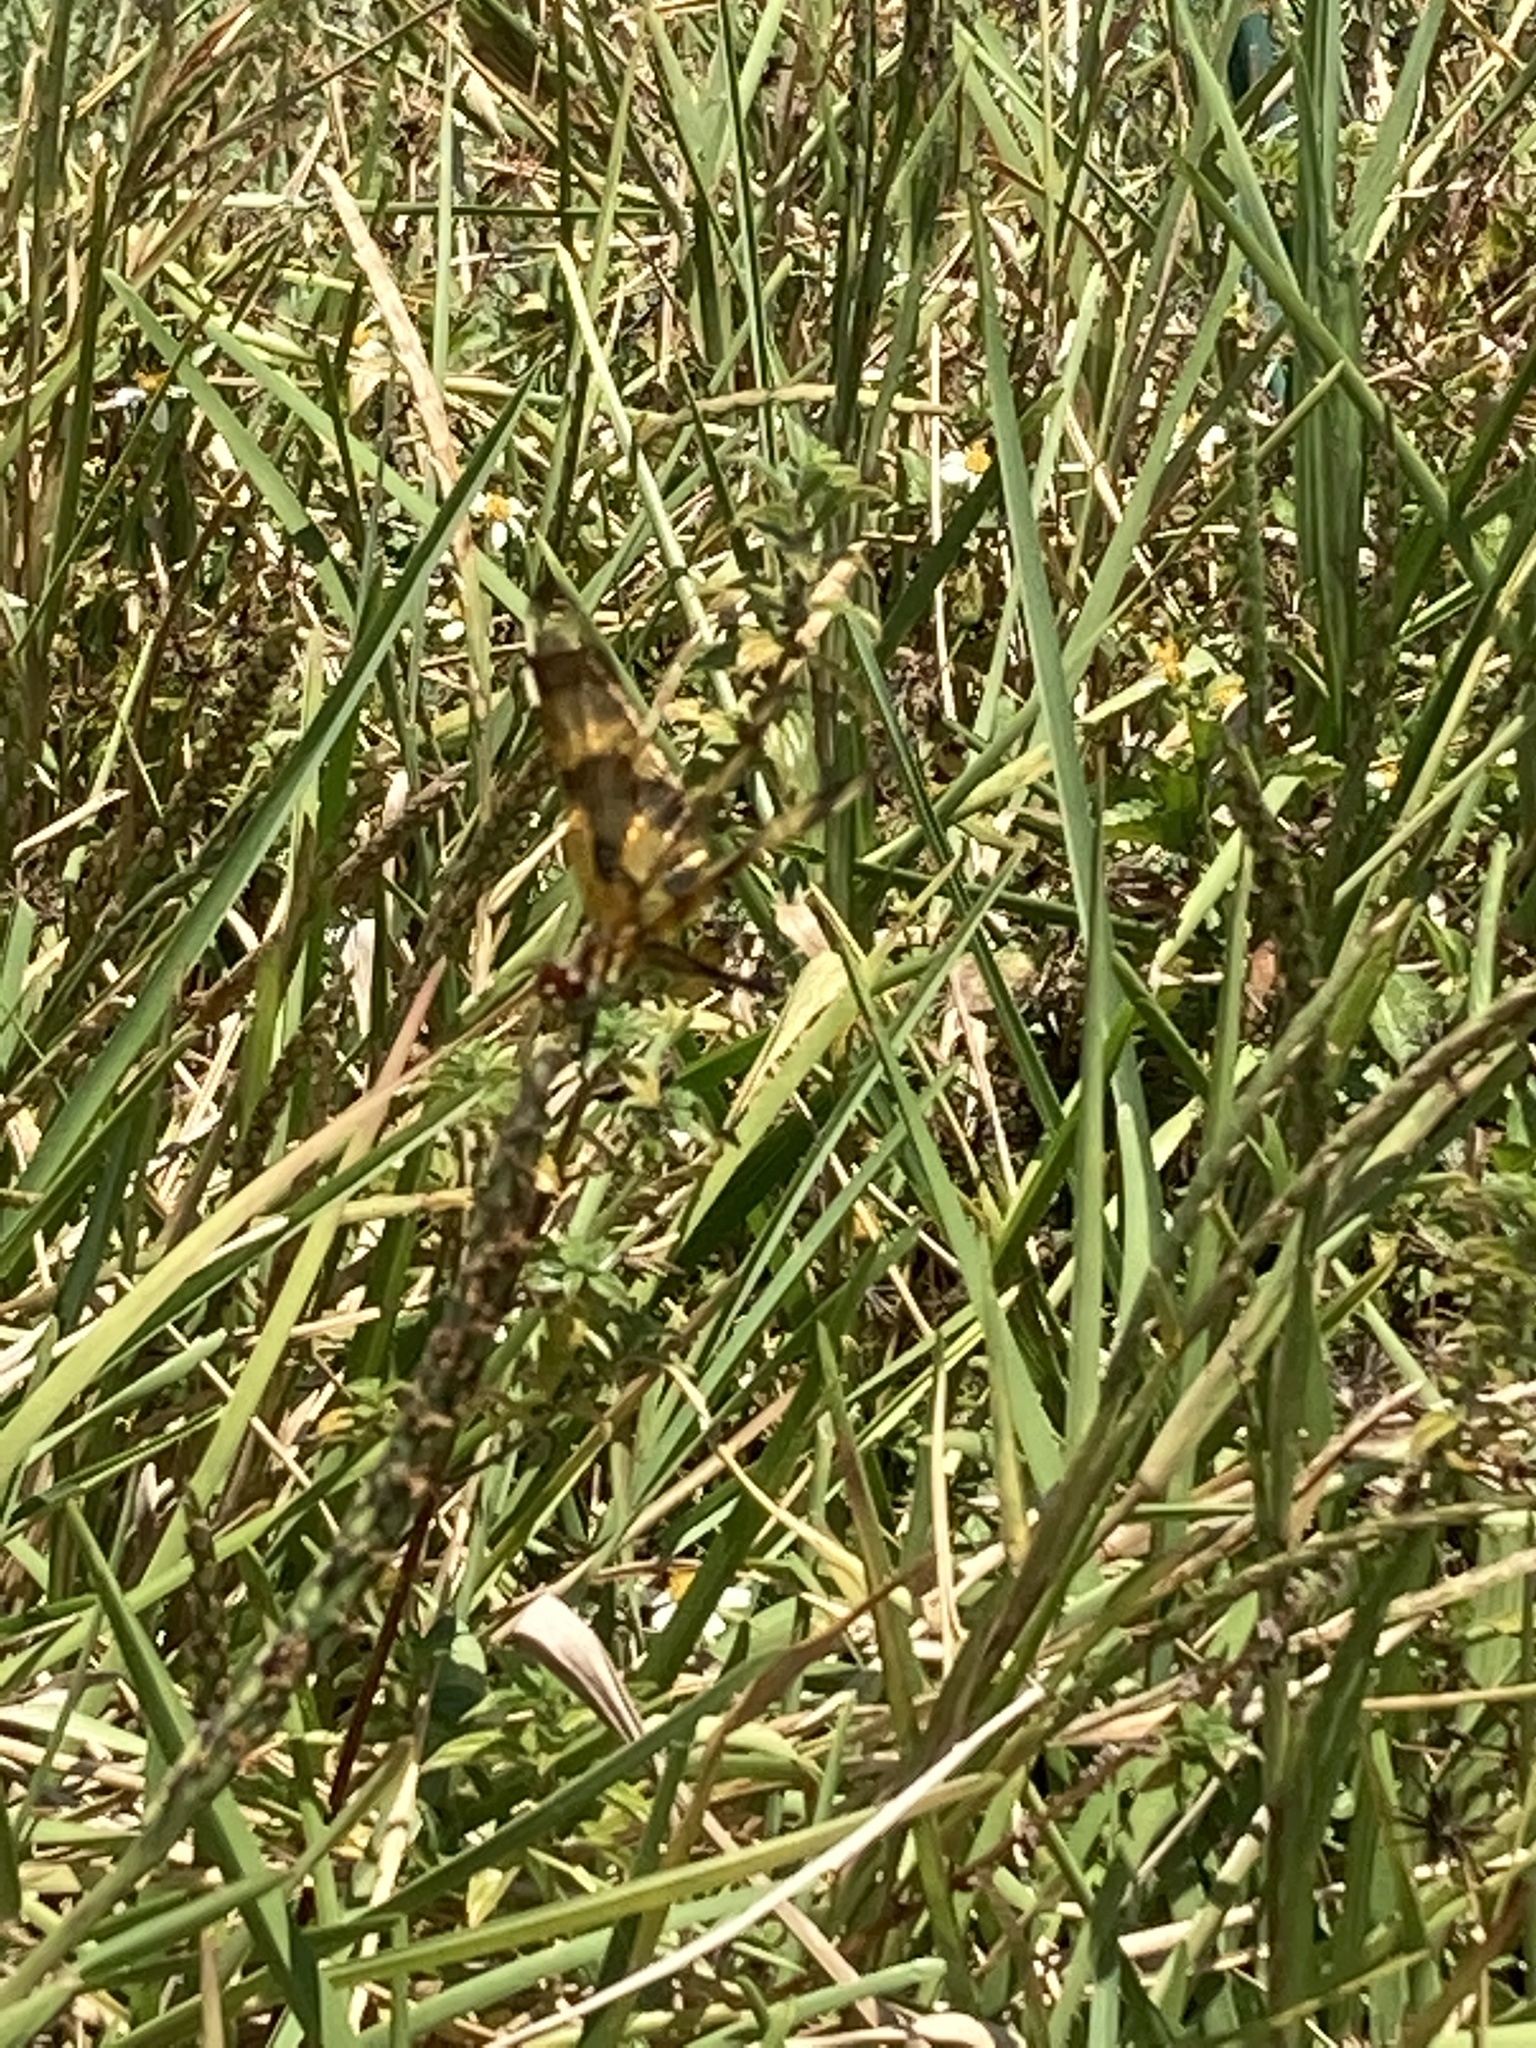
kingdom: Animalia
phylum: Arthropoda
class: Insecta
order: Odonata
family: Libellulidae
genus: Celithemis
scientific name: Celithemis eponina
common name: Halloween pennant
